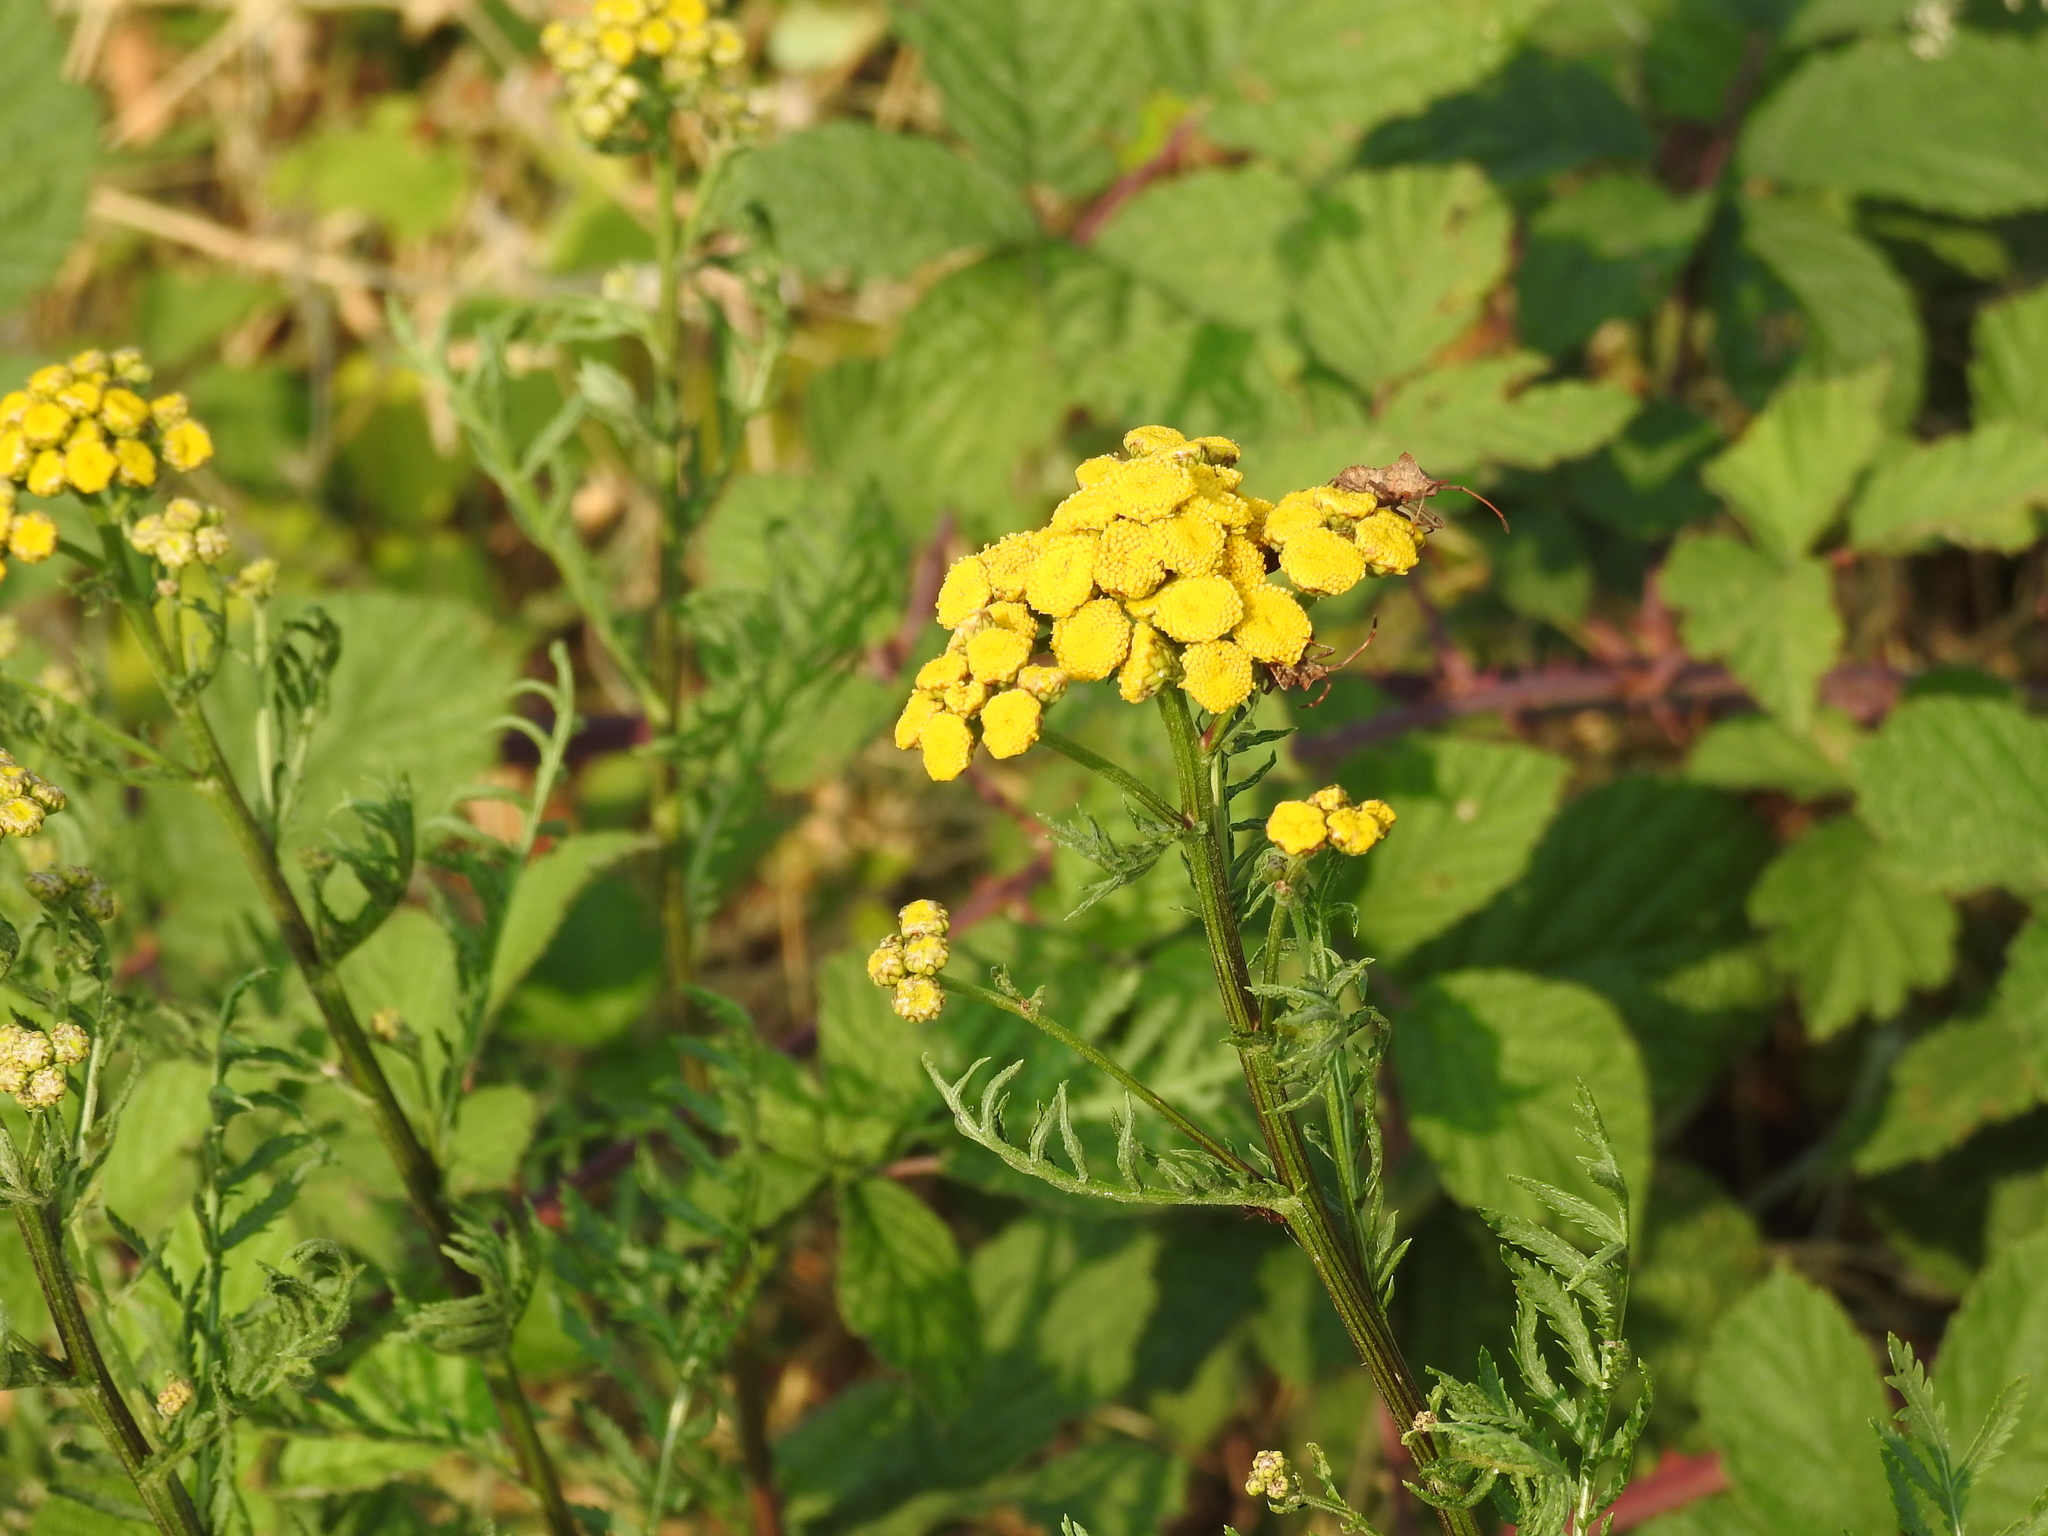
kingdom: Plantae
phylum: Tracheophyta
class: Magnoliopsida
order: Asterales
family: Asteraceae
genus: Tanacetum
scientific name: Tanacetum vulgare
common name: Common tansy
